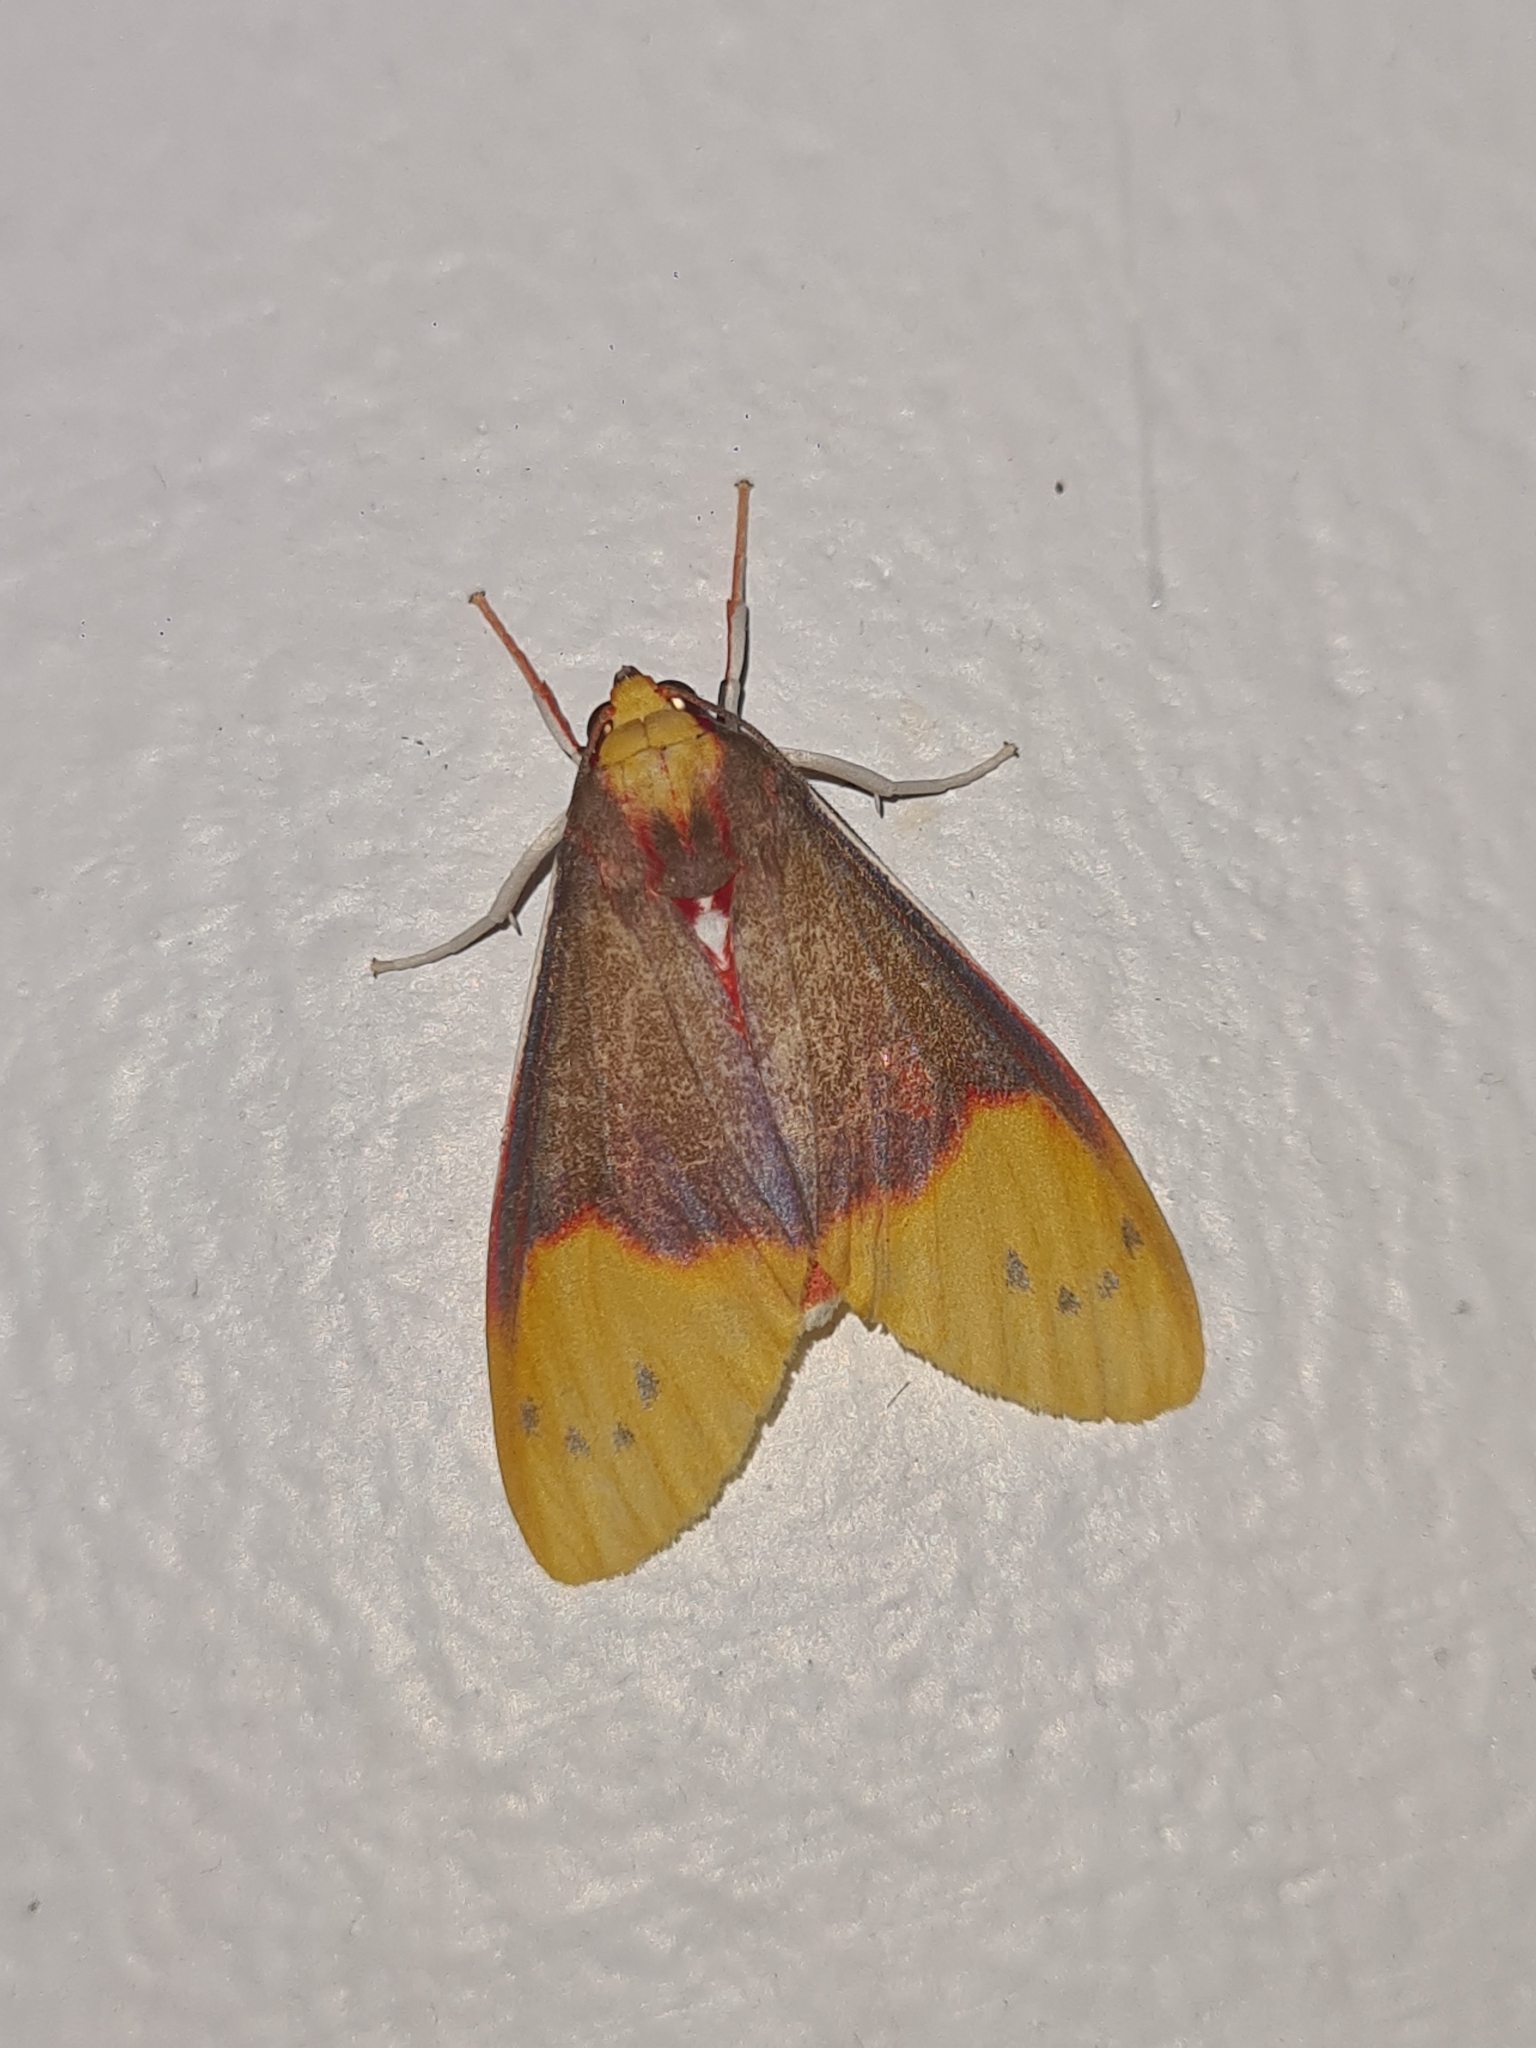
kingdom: Animalia
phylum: Arthropoda
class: Insecta
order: Lepidoptera
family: Erebidae
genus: Evius
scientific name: Evius albicoxae
